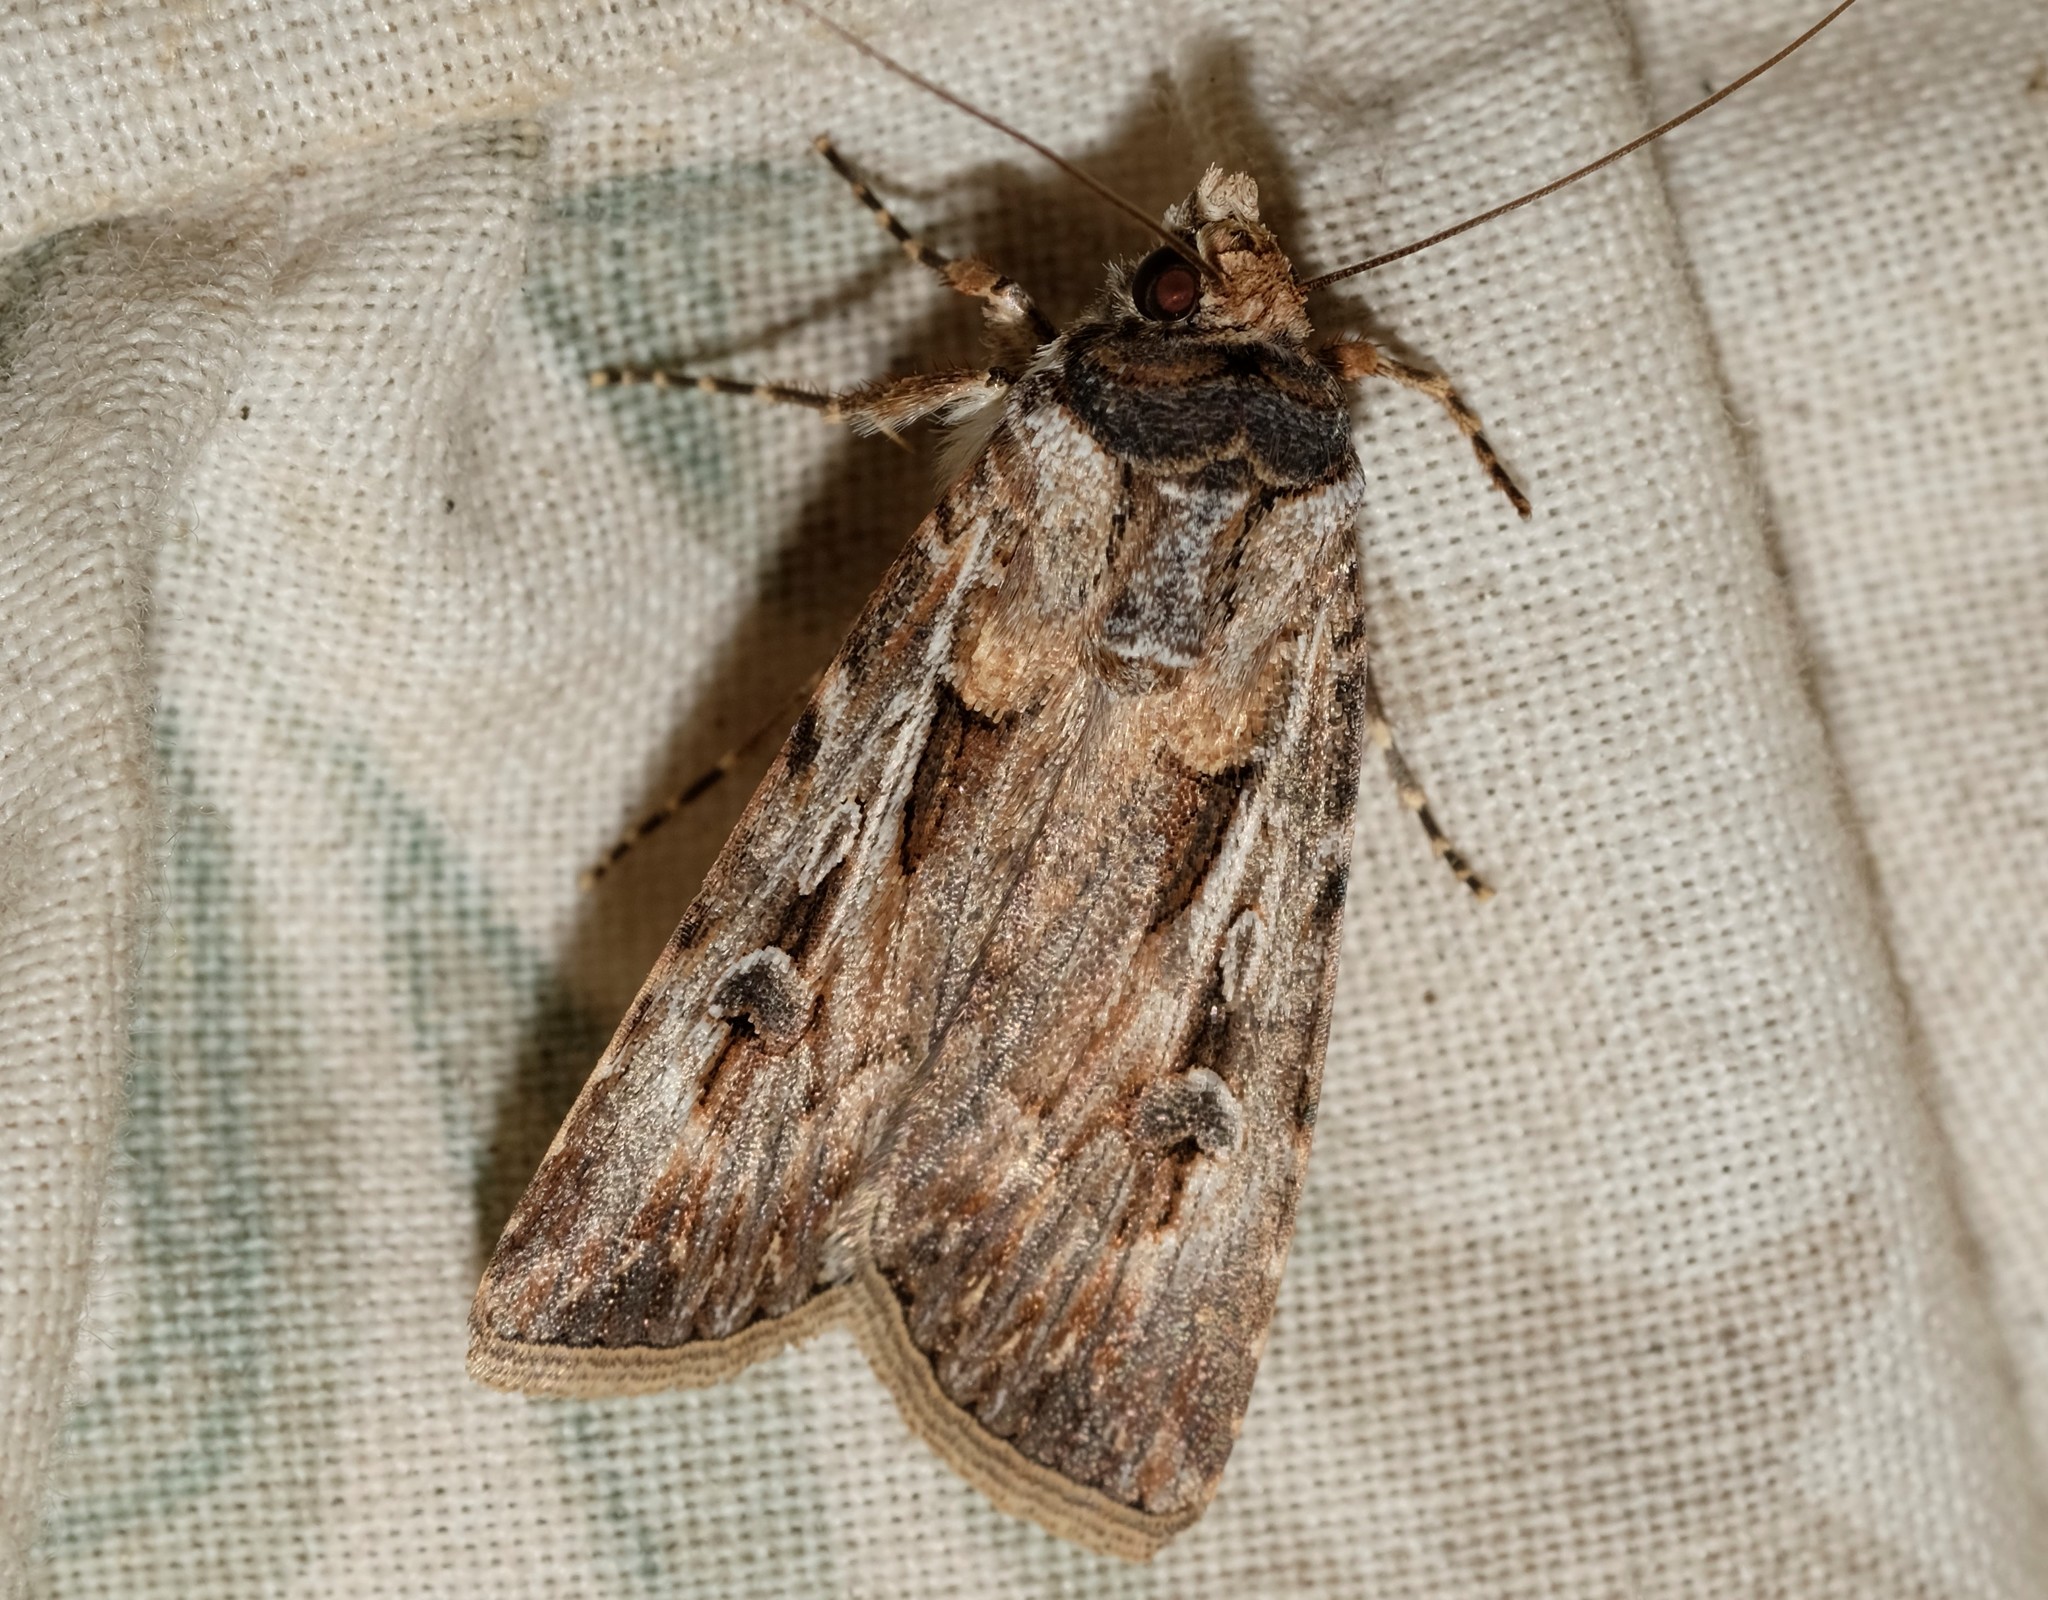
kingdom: Animalia
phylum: Arthropoda
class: Insecta
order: Lepidoptera
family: Noctuidae
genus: Agrotis
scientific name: Agrotis munda
